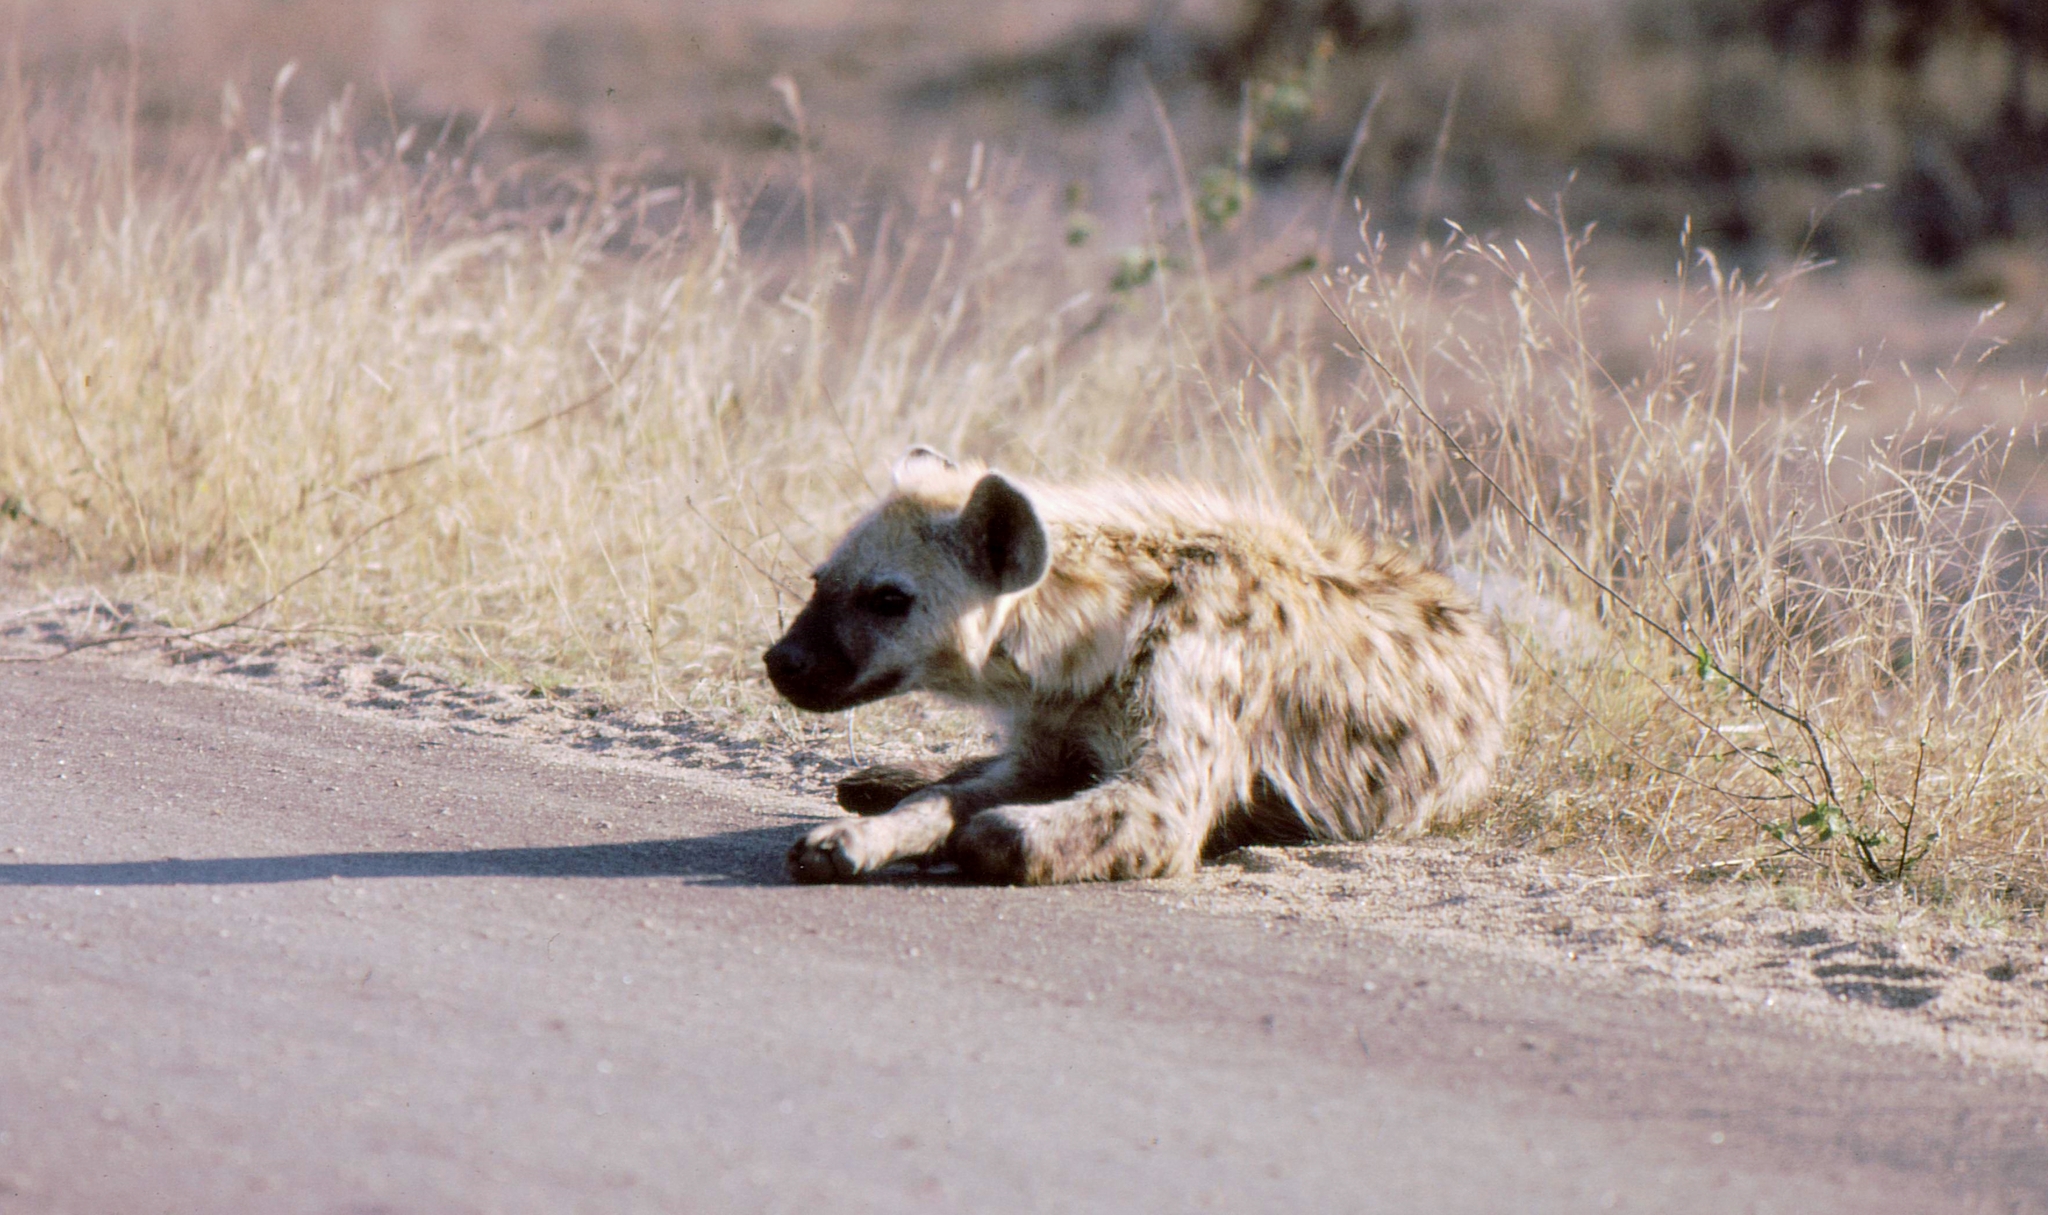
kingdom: Animalia
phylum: Chordata
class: Mammalia
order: Carnivora
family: Hyaenidae
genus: Crocuta
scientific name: Crocuta crocuta
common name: Spotted hyaena
